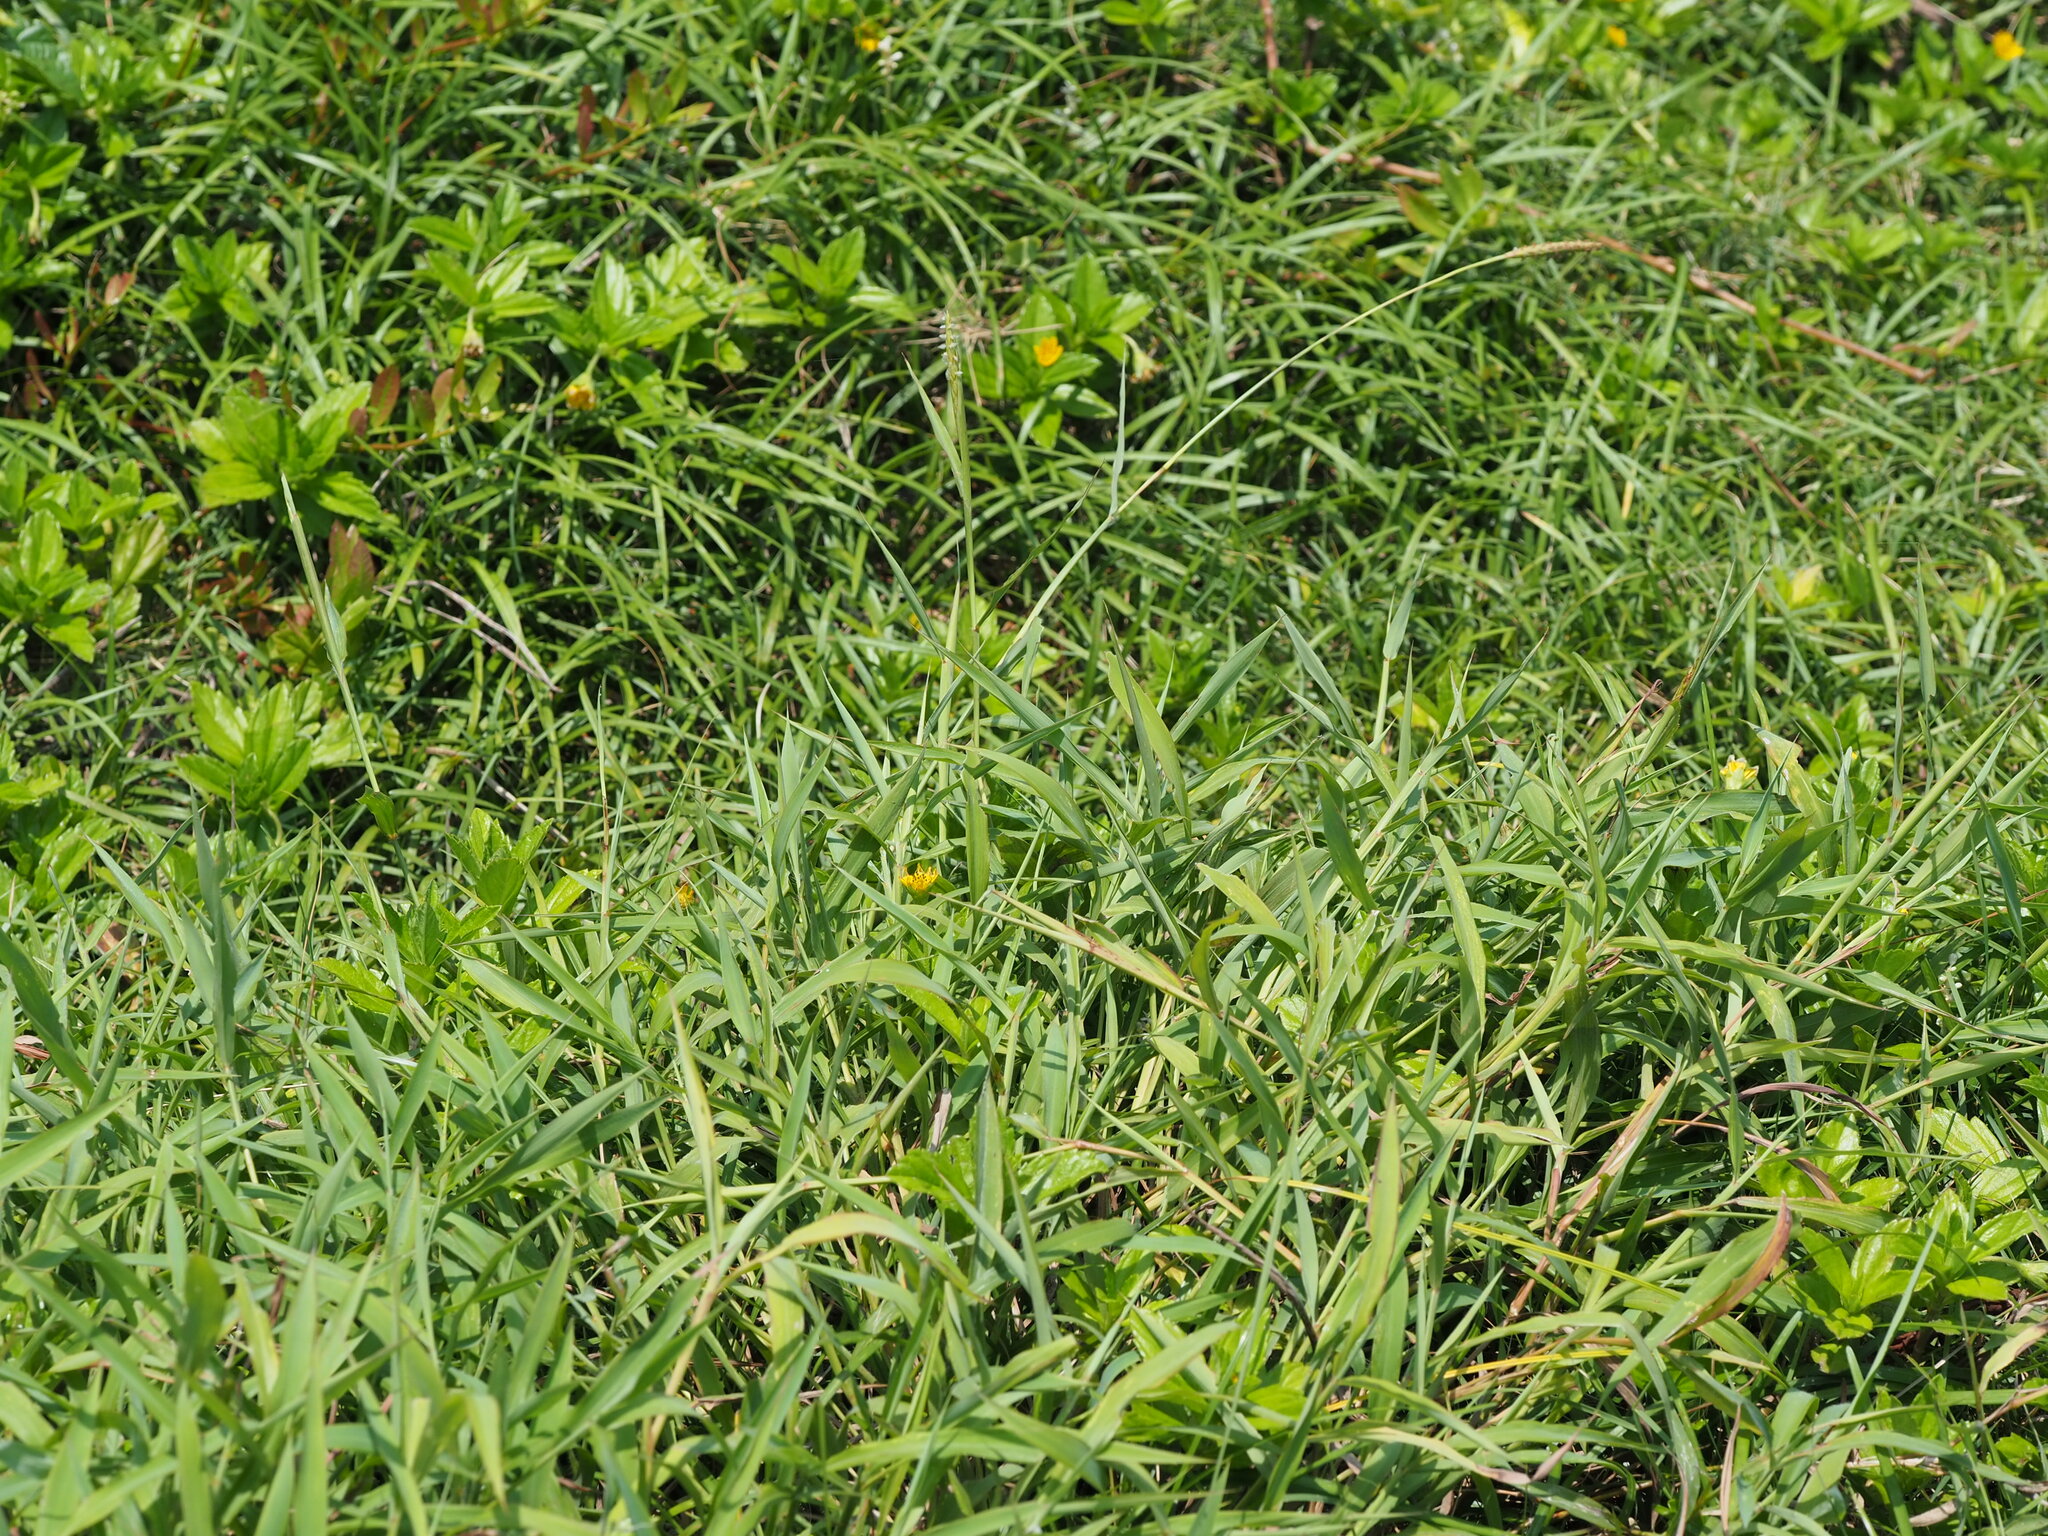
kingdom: Plantae
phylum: Tracheophyta
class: Liliopsida
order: Poales
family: Poaceae
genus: Ischaemum
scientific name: Ischaemum aristatum
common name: Toco grass
